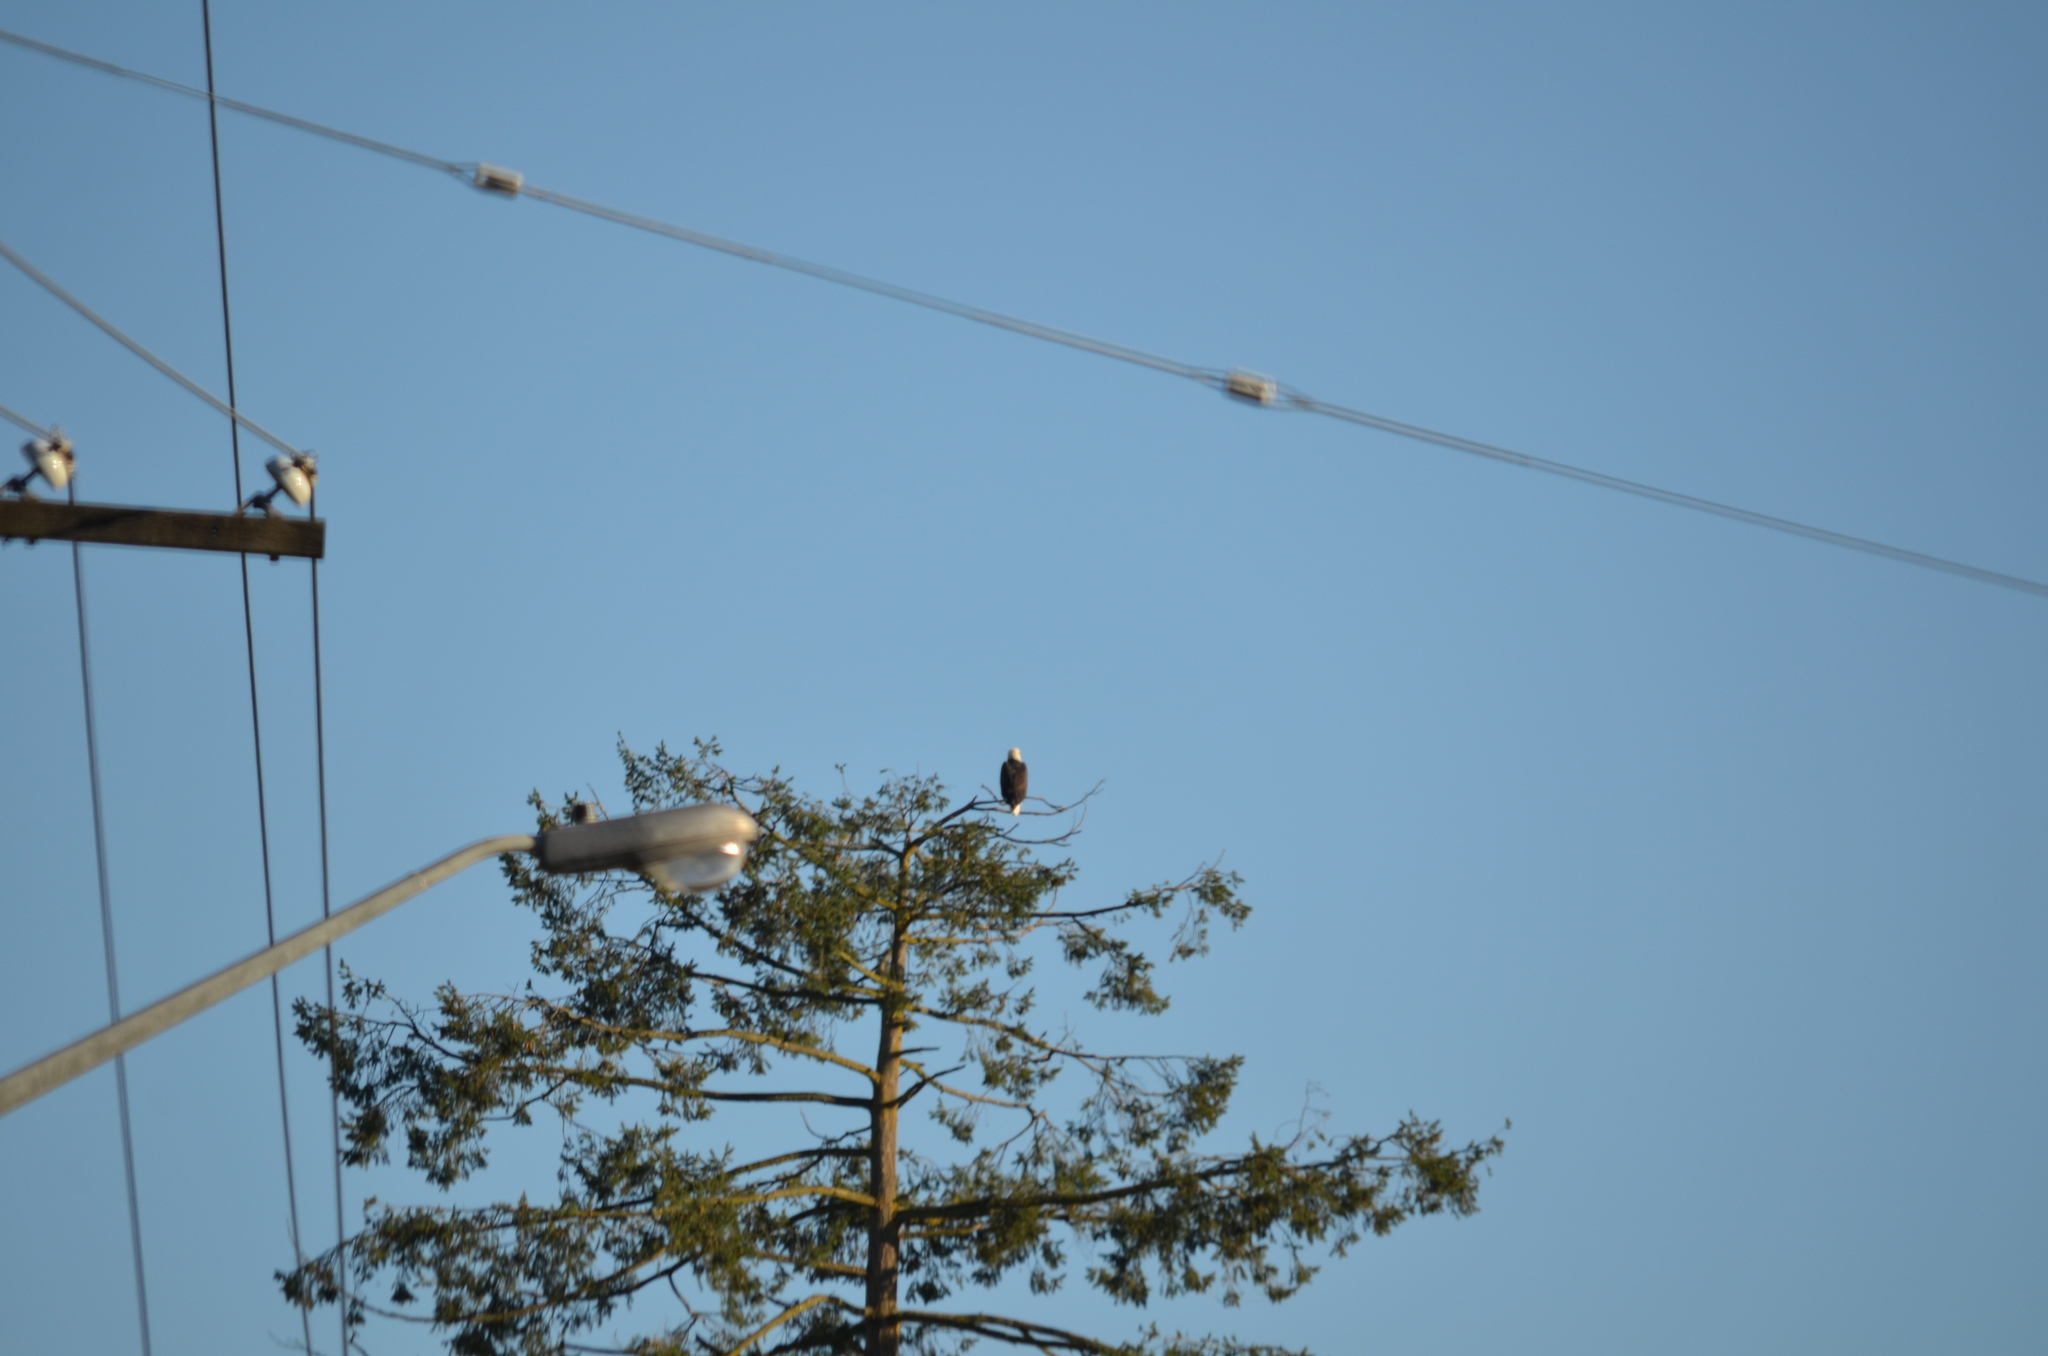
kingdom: Animalia
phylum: Chordata
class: Aves
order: Accipitriformes
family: Accipitridae
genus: Haliaeetus
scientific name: Haliaeetus leucocephalus
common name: Bald eagle
